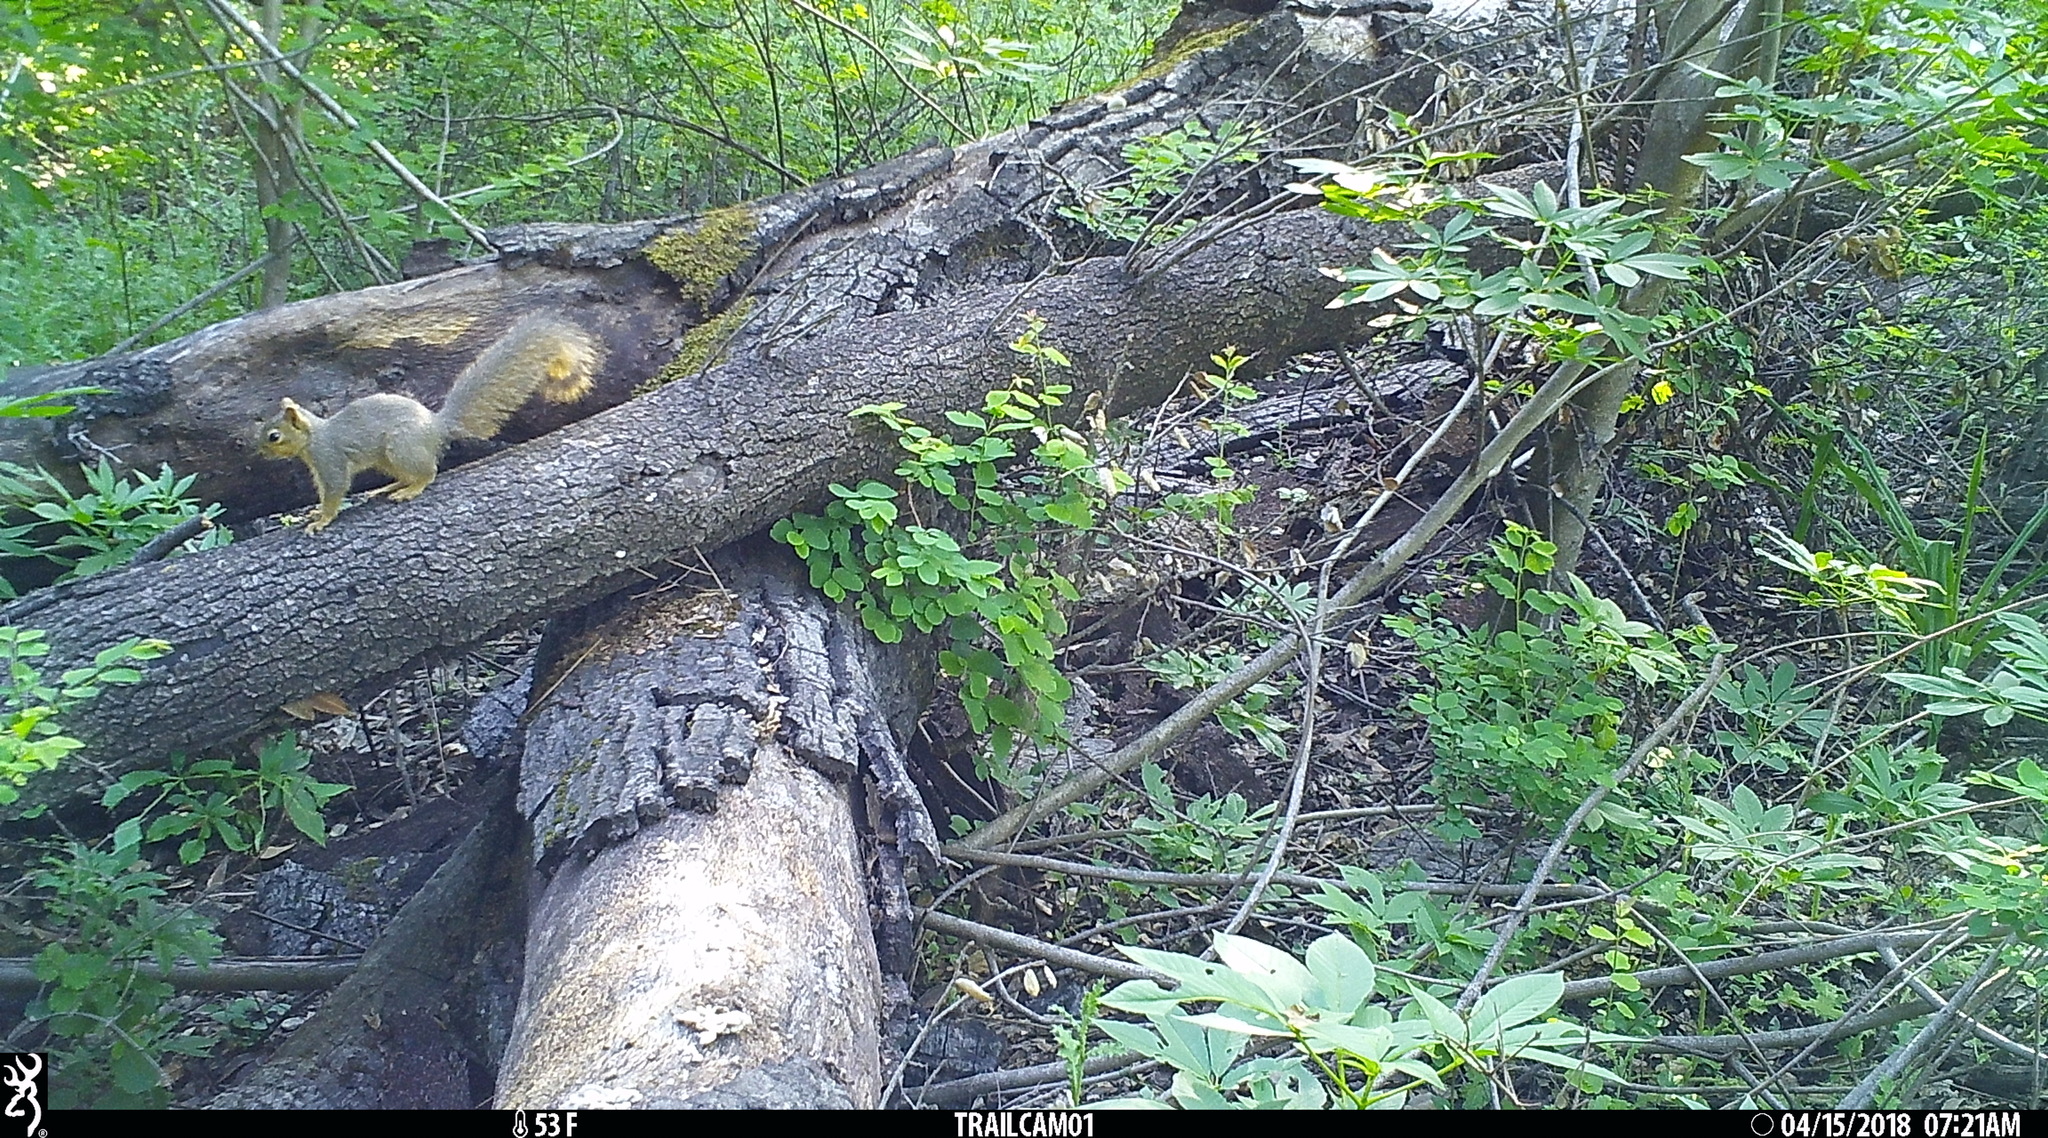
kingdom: Animalia
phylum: Chordata
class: Mammalia
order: Rodentia
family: Sciuridae
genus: Sciurus
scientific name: Sciurus niger
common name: Fox squirrel
